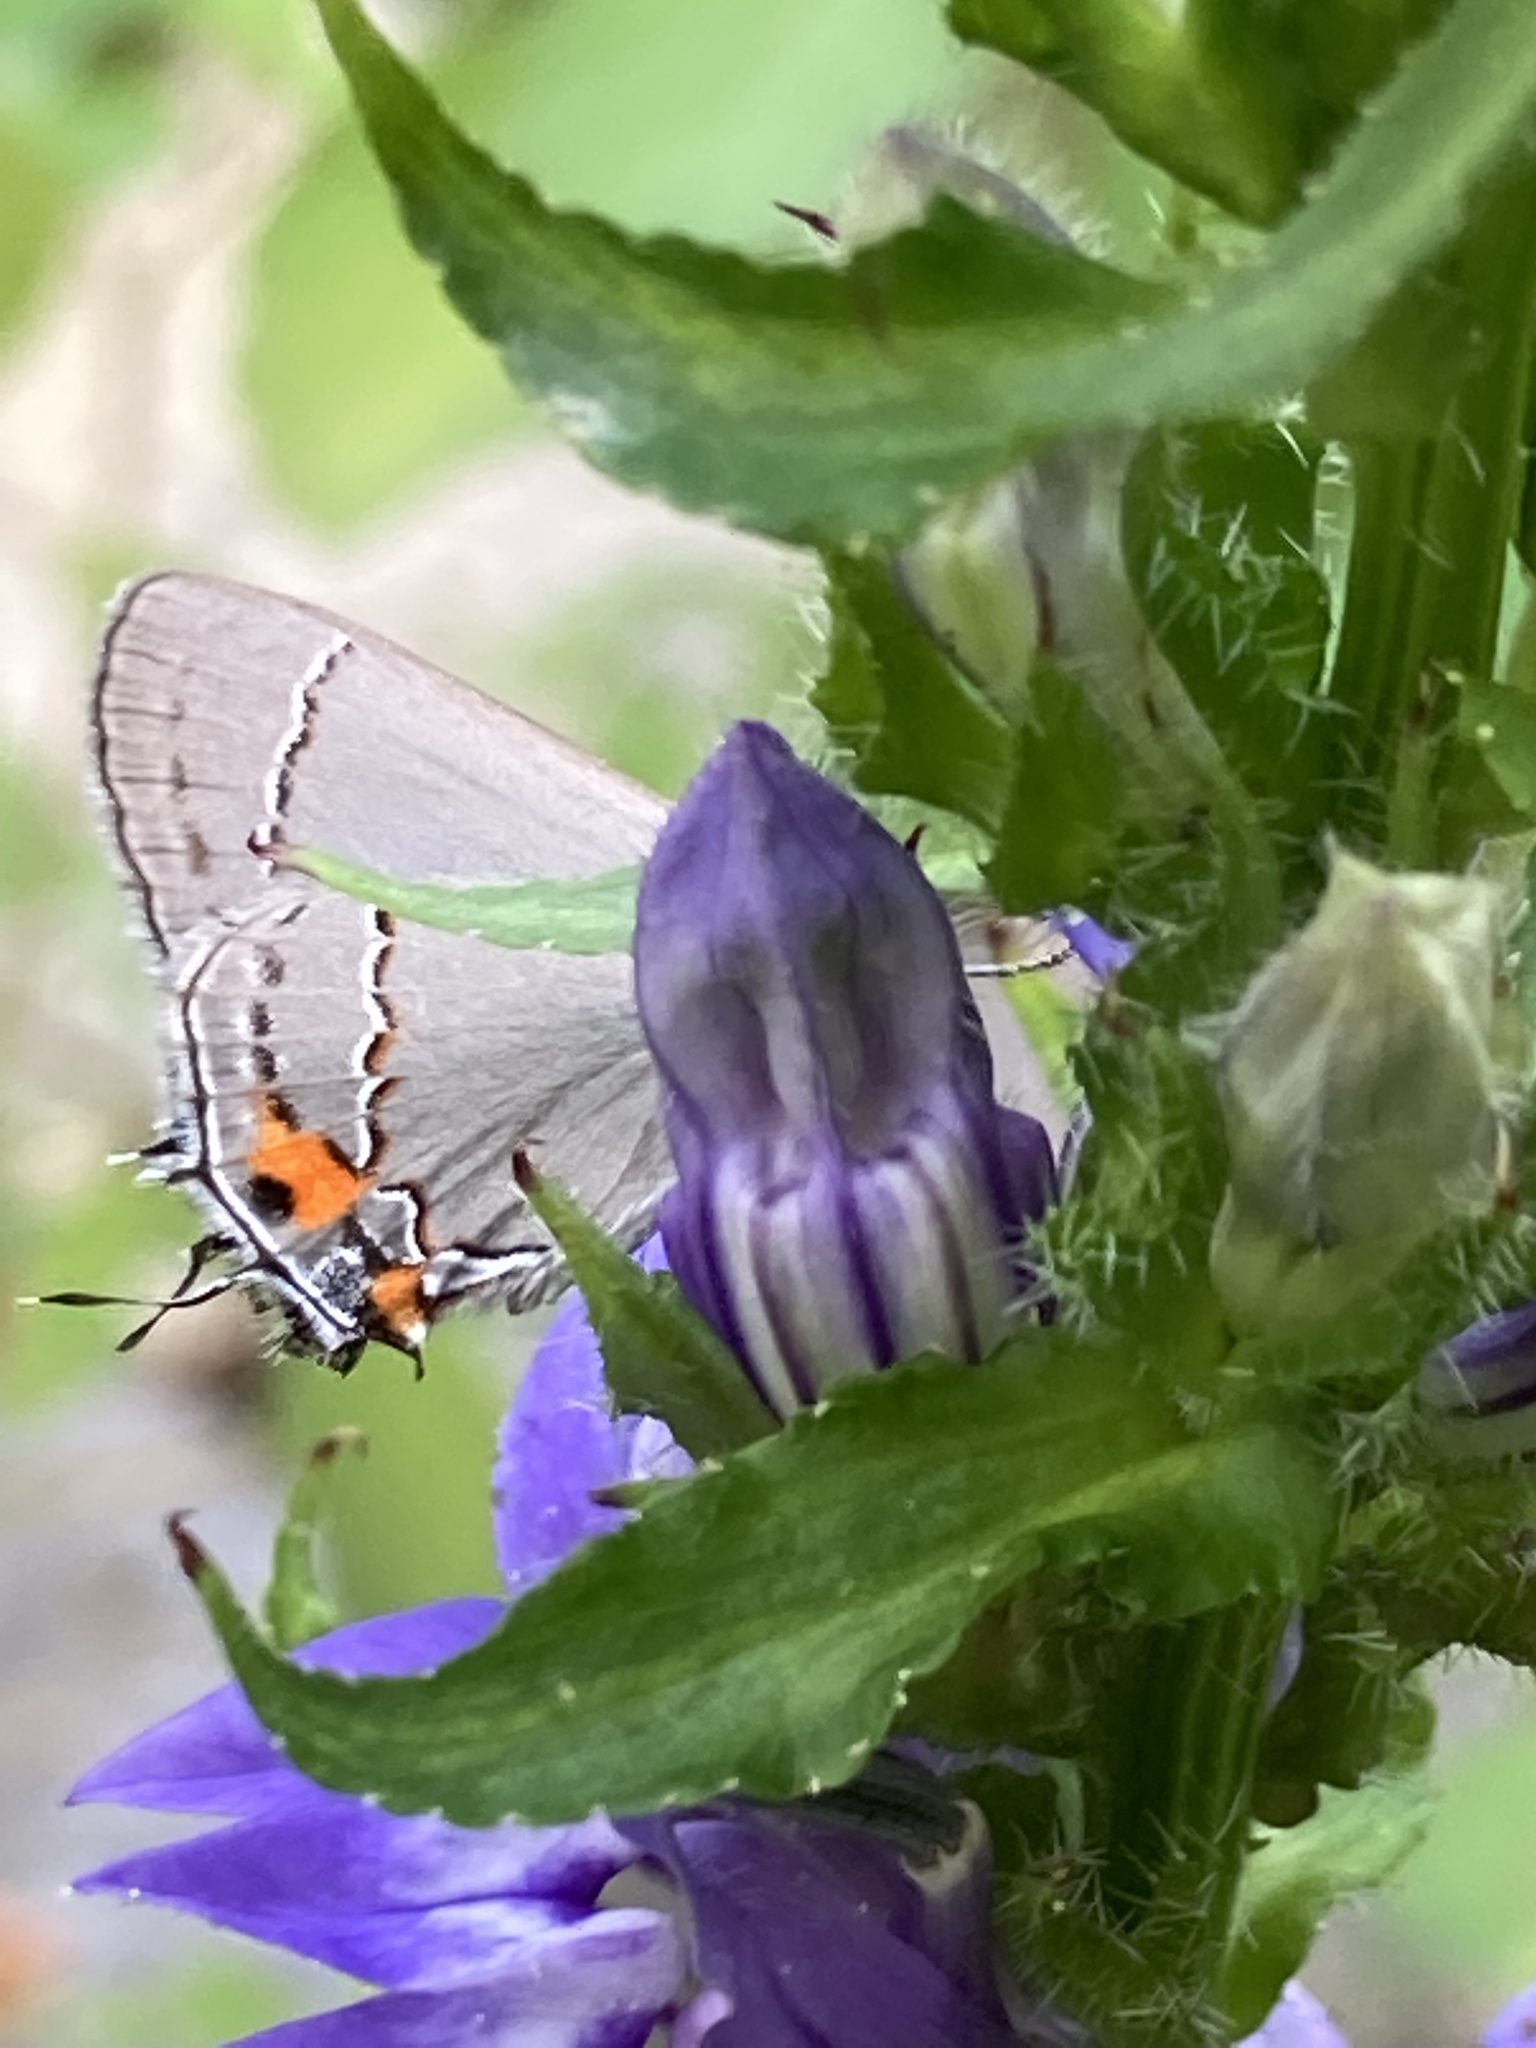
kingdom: Animalia
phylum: Arthropoda
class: Insecta
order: Lepidoptera
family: Lycaenidae
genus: Strymon
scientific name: Strymon melinus
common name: Gray hairstreak
